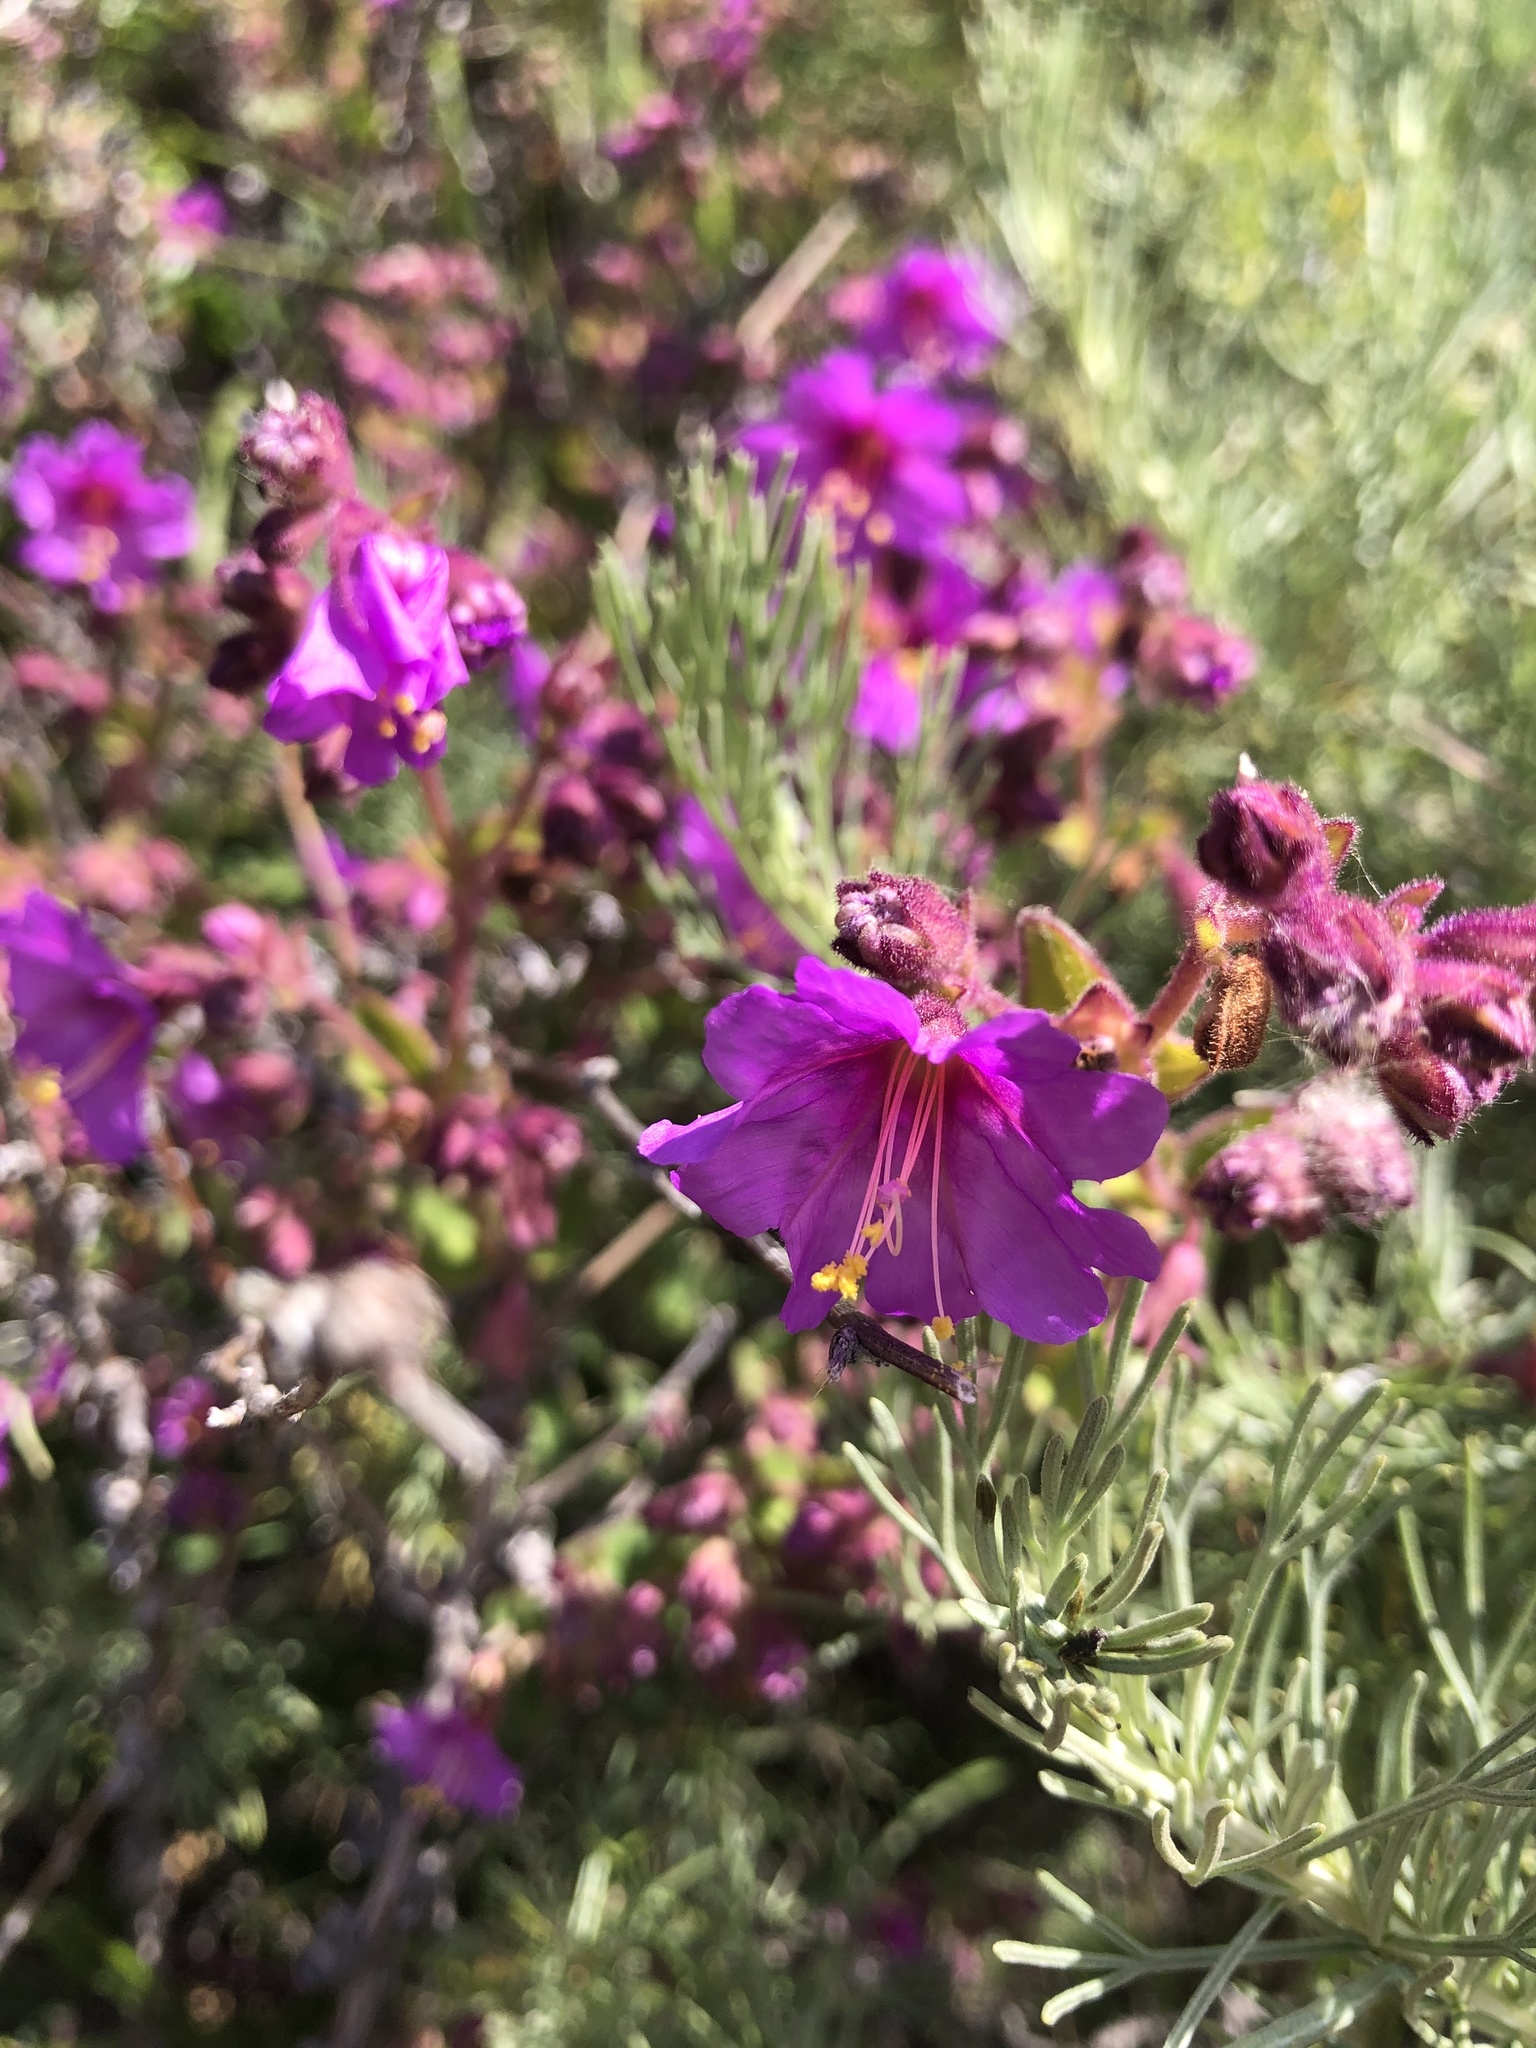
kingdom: Plantae
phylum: Tracheophyta
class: Magnoliopsida
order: Caryophyllales
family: Nyctaginaceae
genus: Mirabilis
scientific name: Mirabilis laevis
